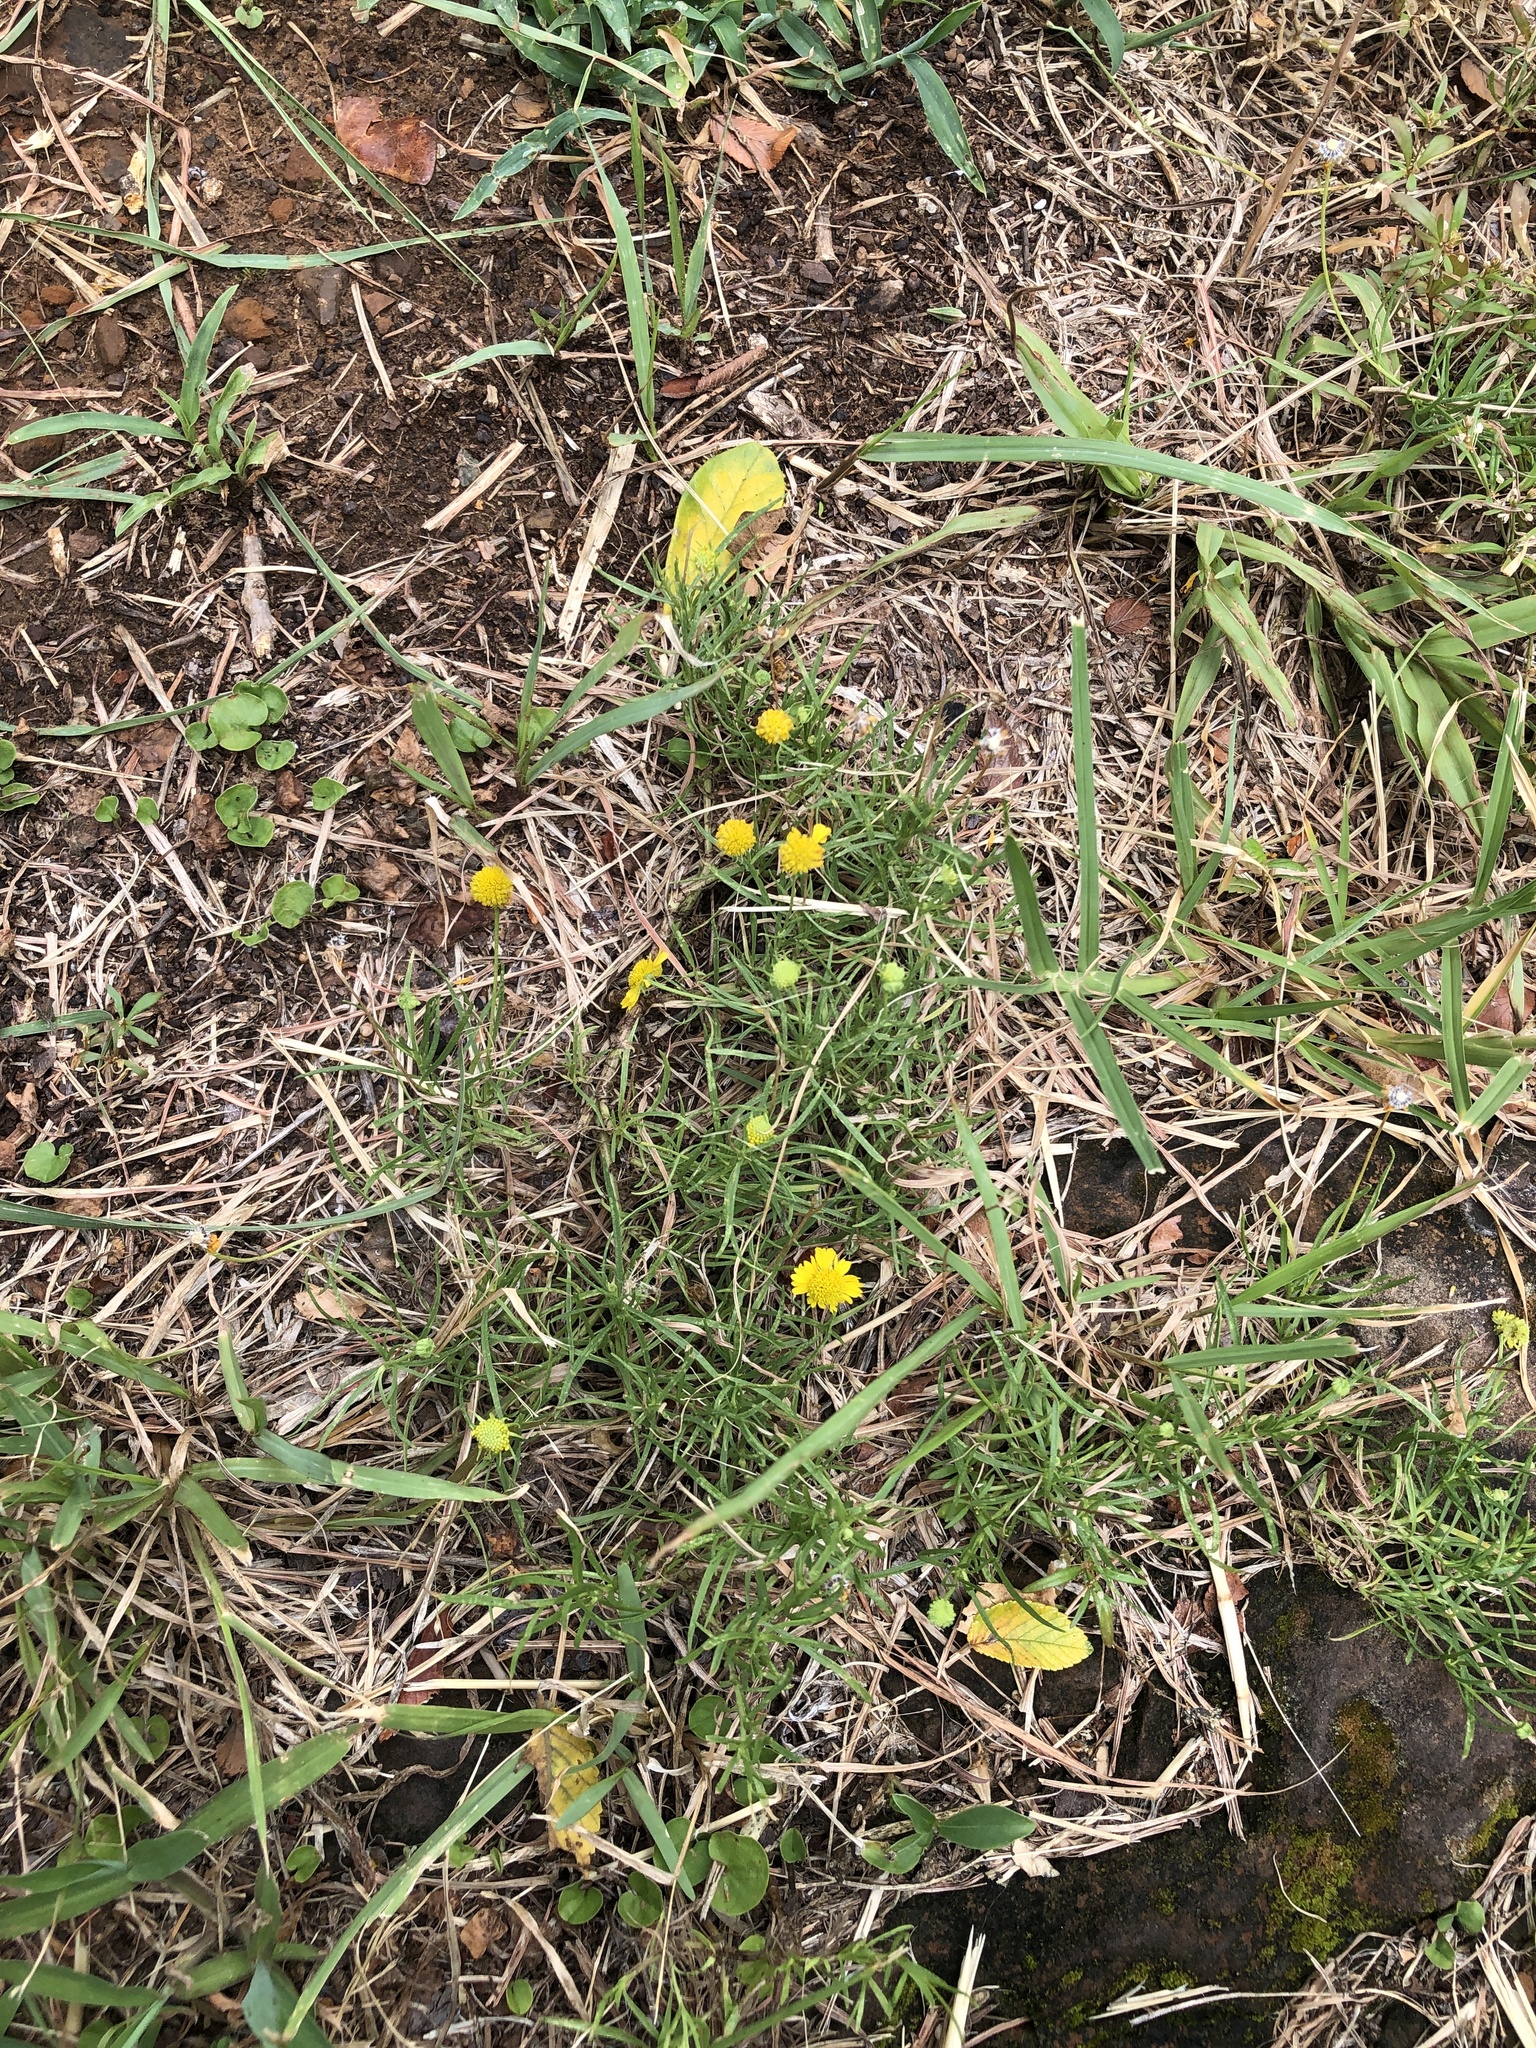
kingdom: Plantae
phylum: Tracheophyta
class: Magnoliopsida
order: Asterales
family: Asteraceae
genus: Helenium
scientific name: Helenium amarum
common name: Bitter sneezeweed
